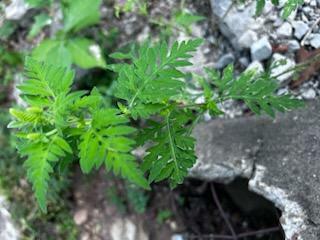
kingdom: Plantae
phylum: Tracheophyta
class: Magnoliopsida
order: Asterales
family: Asteraceae
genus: Ambrosia
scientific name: Ambrosia artemisiifolia
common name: Annual ragweed
